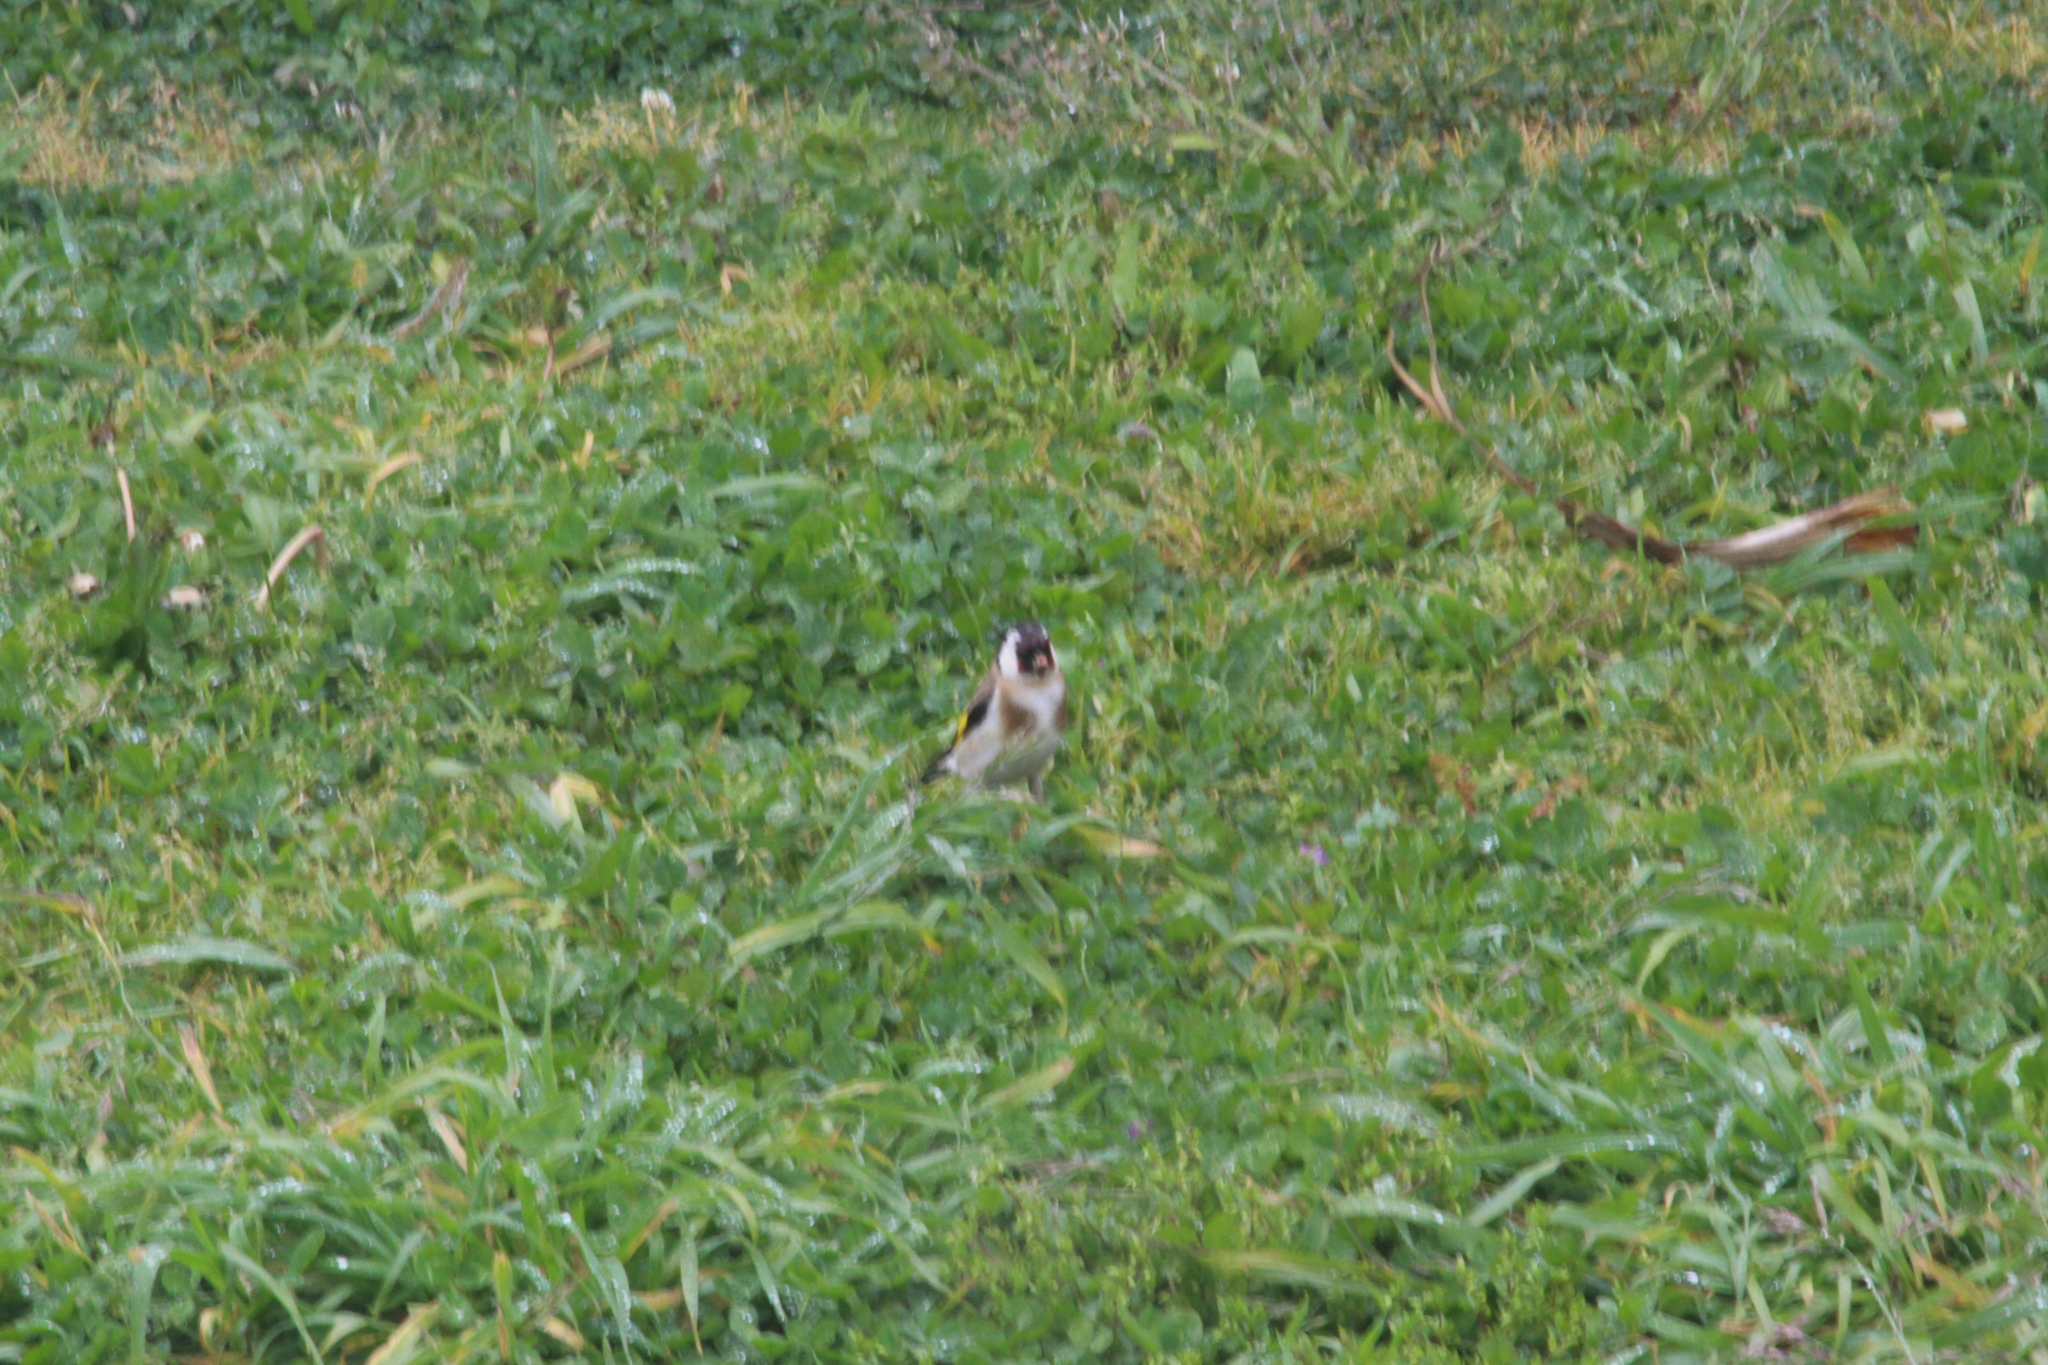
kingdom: Animalia
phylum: Chordata
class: Aves
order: Passeriformes
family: Fringillidae
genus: Carduelis
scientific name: Carduelis carduelis
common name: European goldfinch
